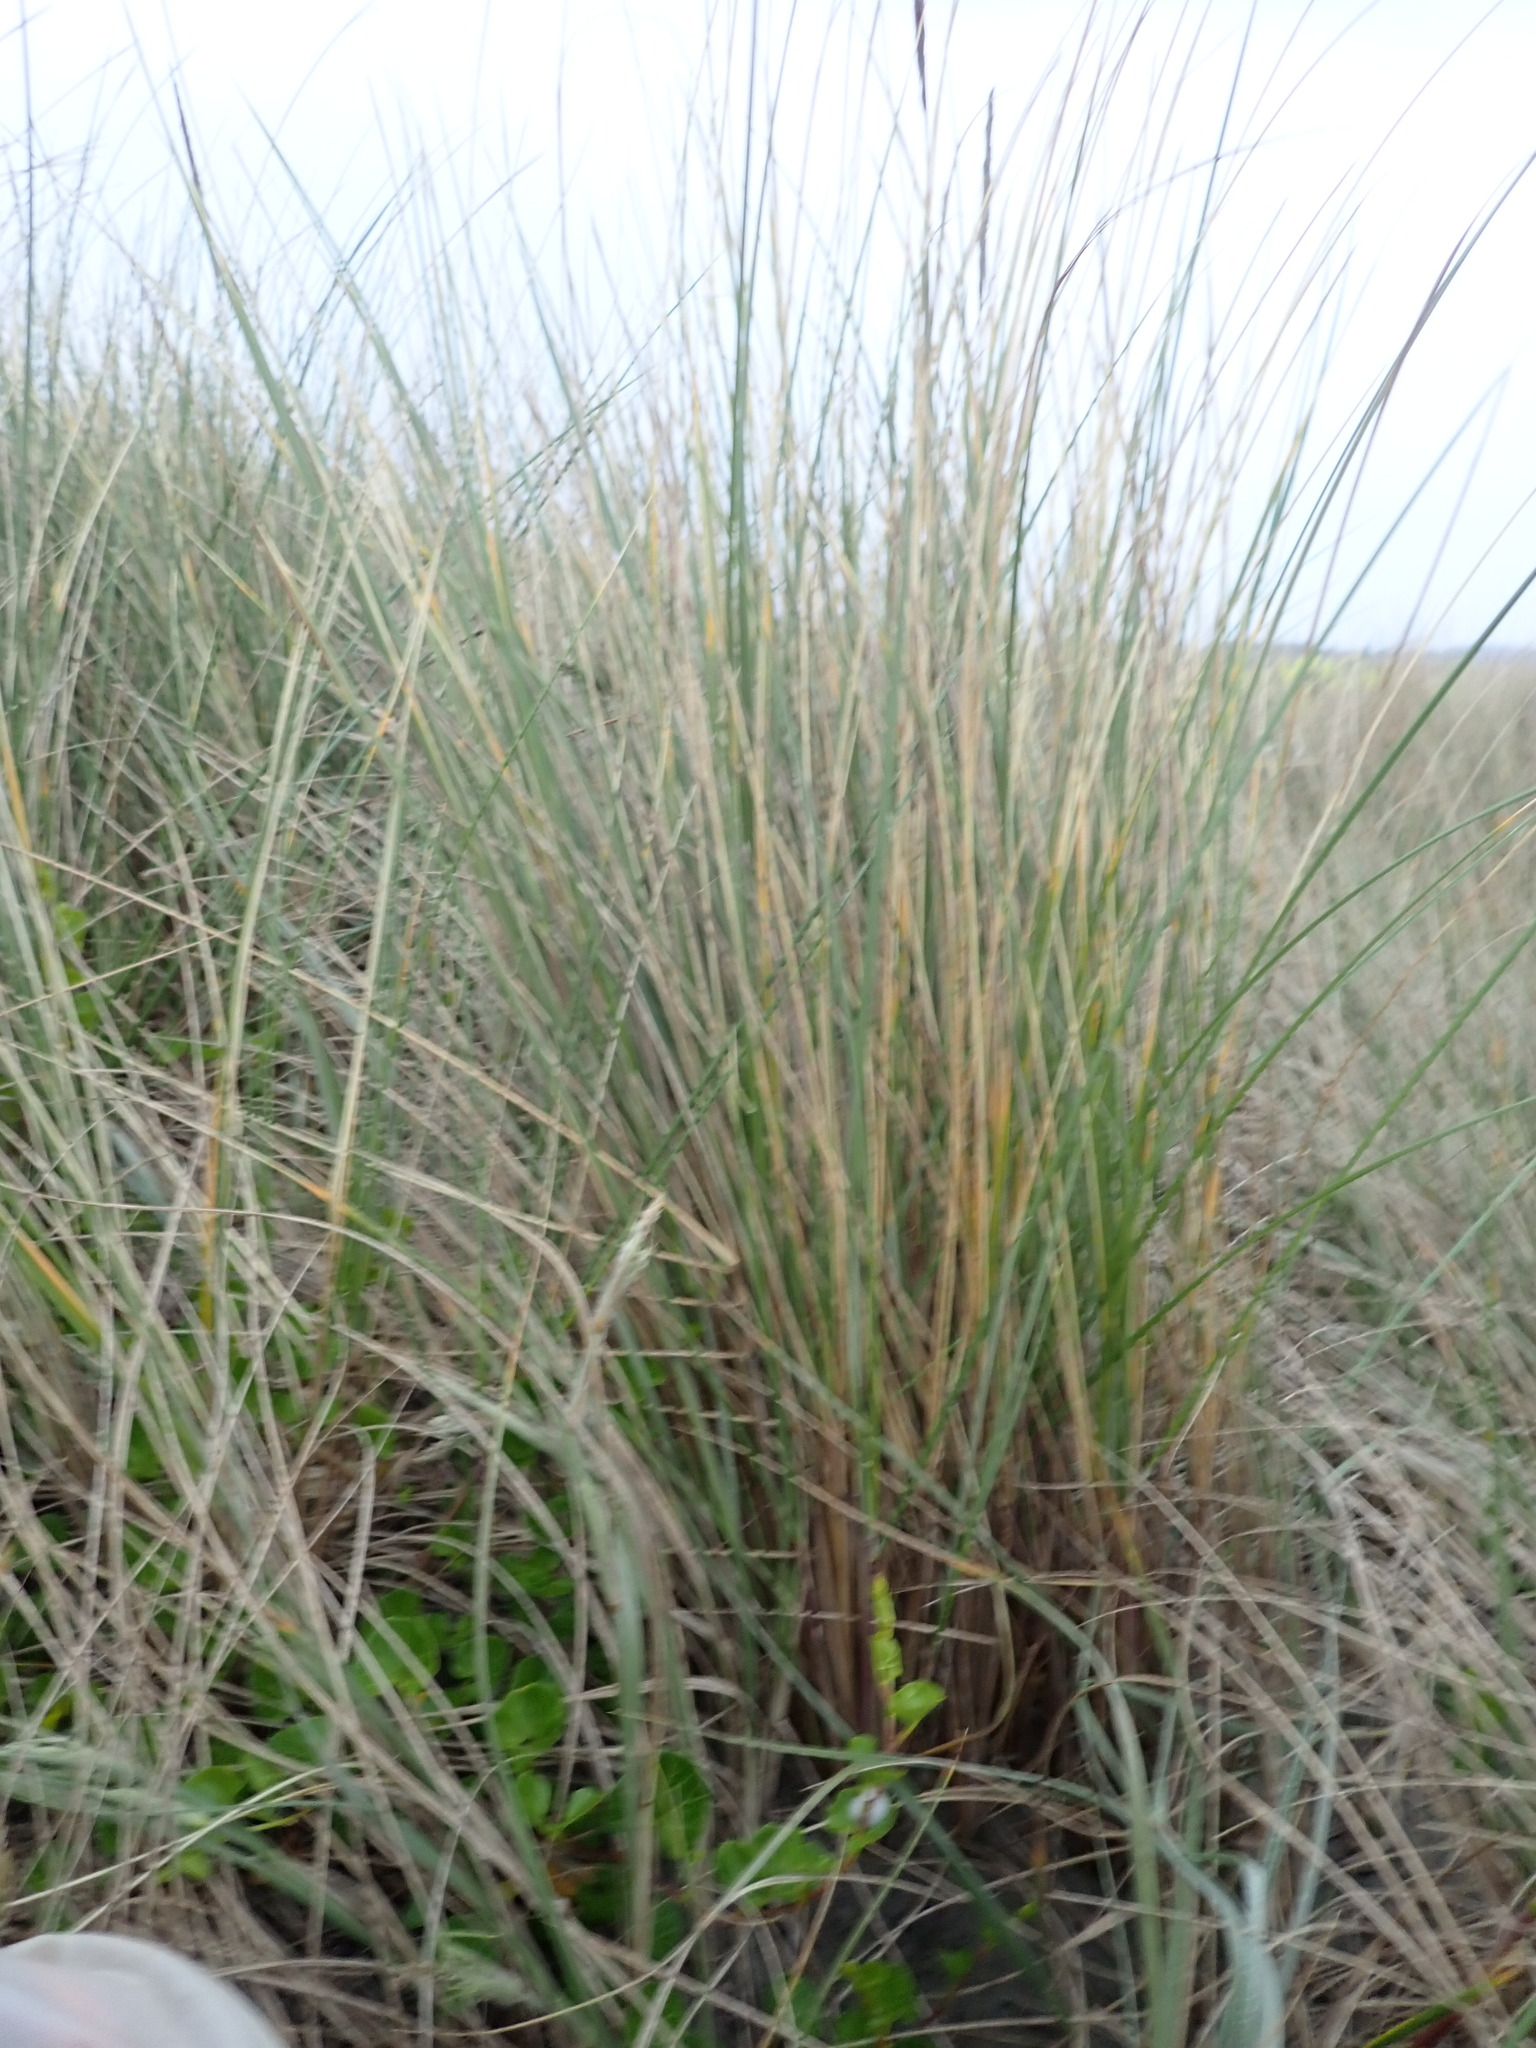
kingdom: Plantae
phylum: Tracheophyta
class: Liliopsida
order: Poales
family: Poaceae
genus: Calamagrostis
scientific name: Calamagrostis arenaria
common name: European beachgrass
